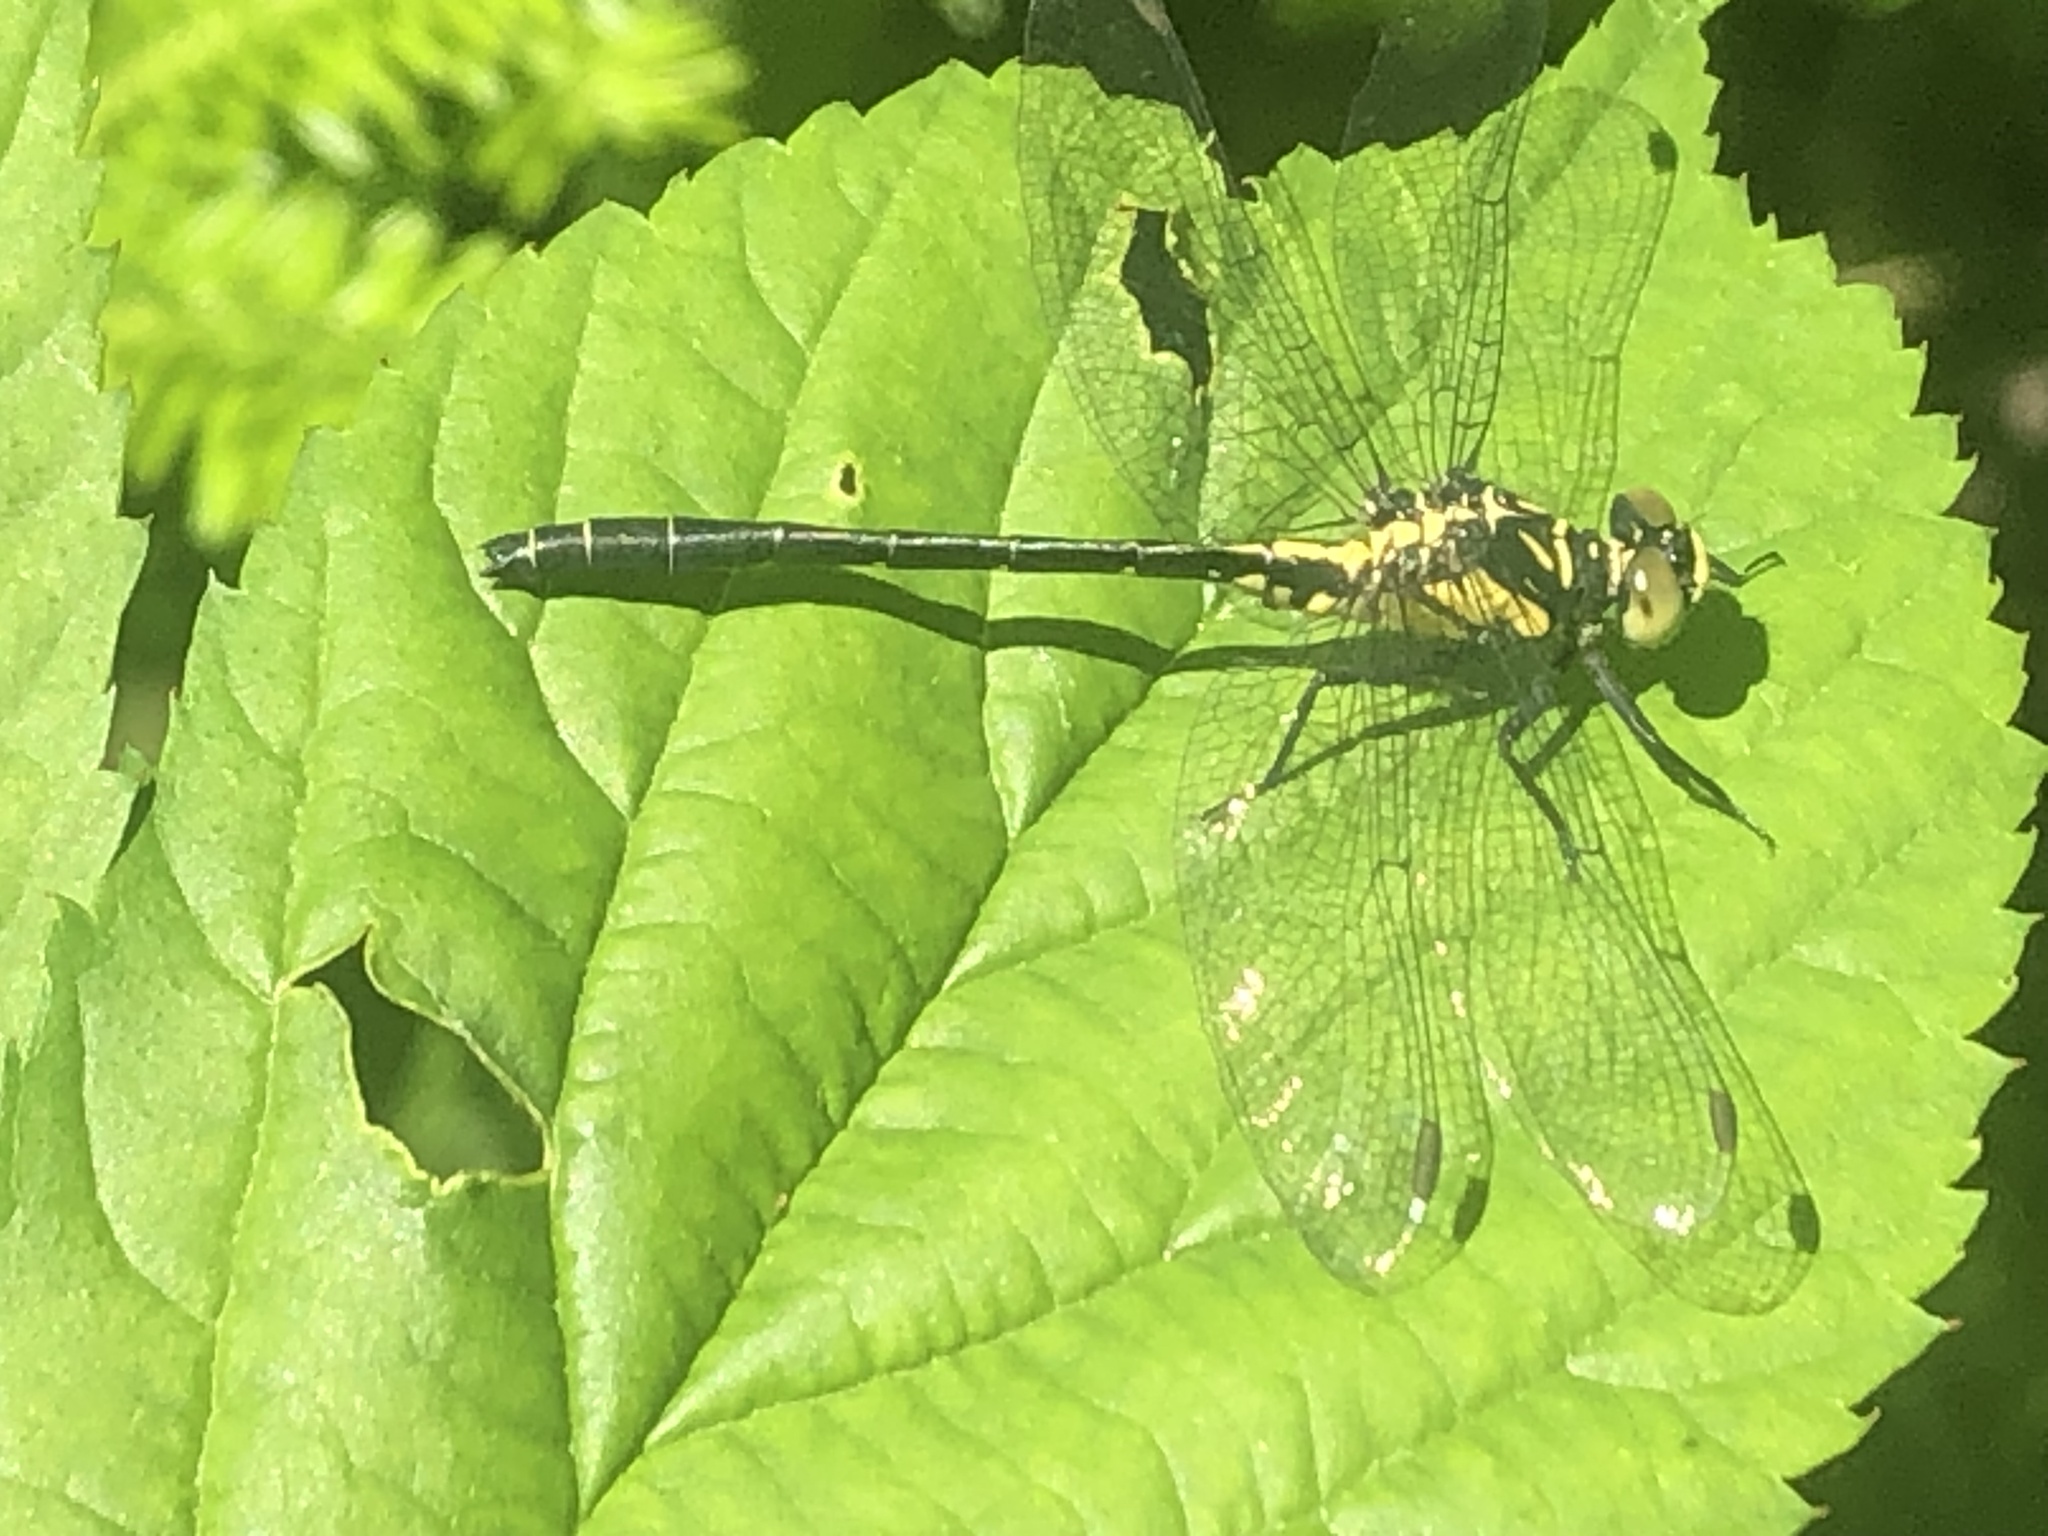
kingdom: Animalia
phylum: Arthropoda
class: Insecta
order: Odonata
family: Gomphidae
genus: Lanthus
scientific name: Lanthus vernalis
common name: Southern pygmy clubtail
